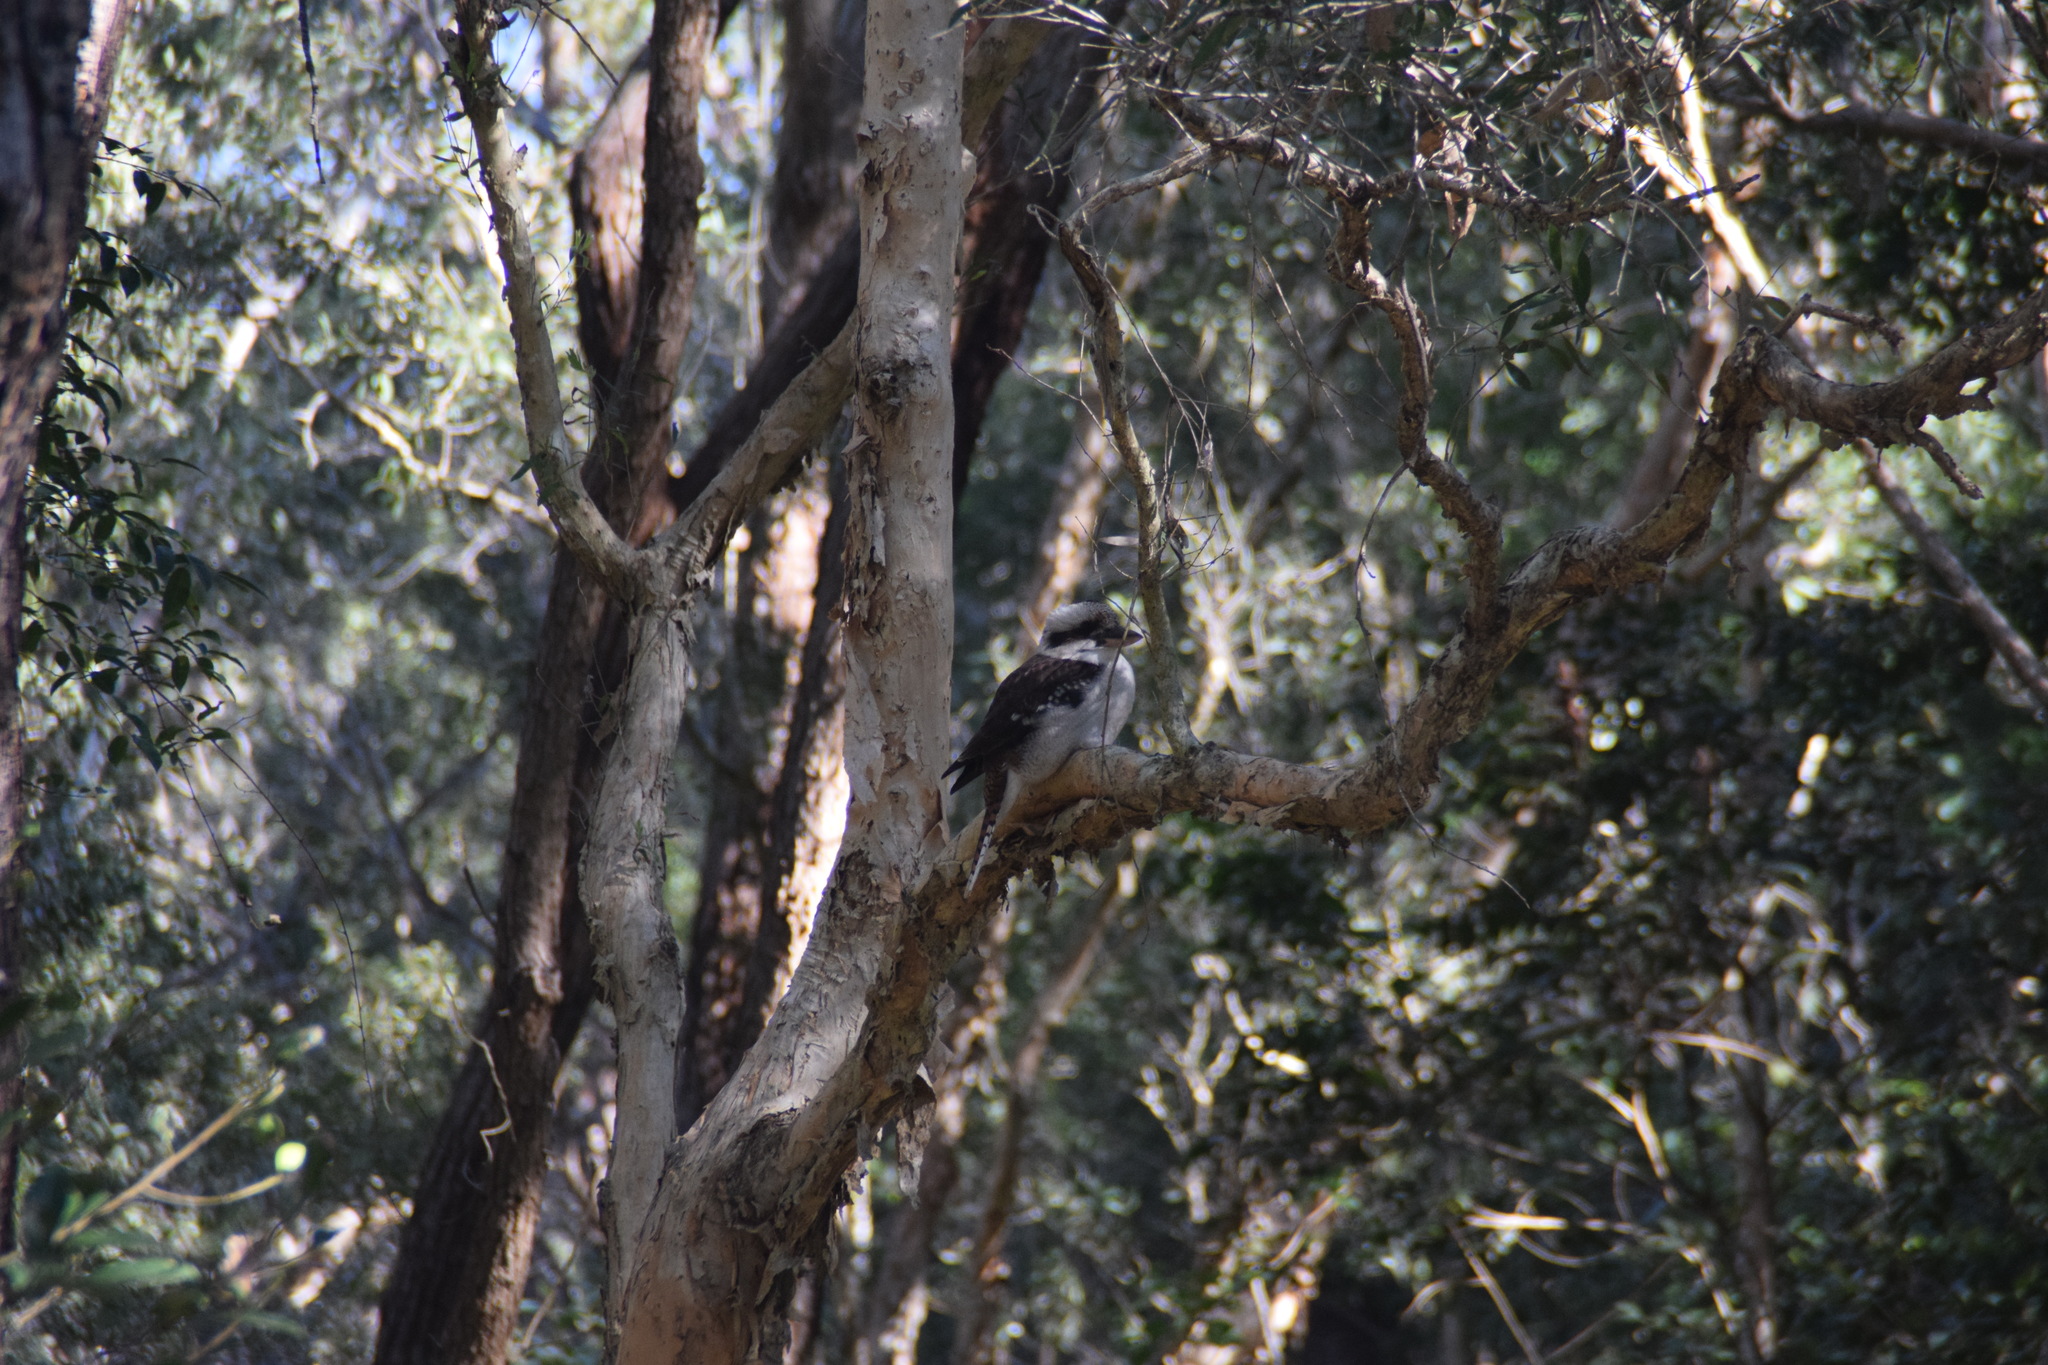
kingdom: Animalia
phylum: Chordata
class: Aves
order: Coraciiformes
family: Alcedinidae
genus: Dacelo
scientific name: Dacelo novaeguineae
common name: Laughing kookaburra
